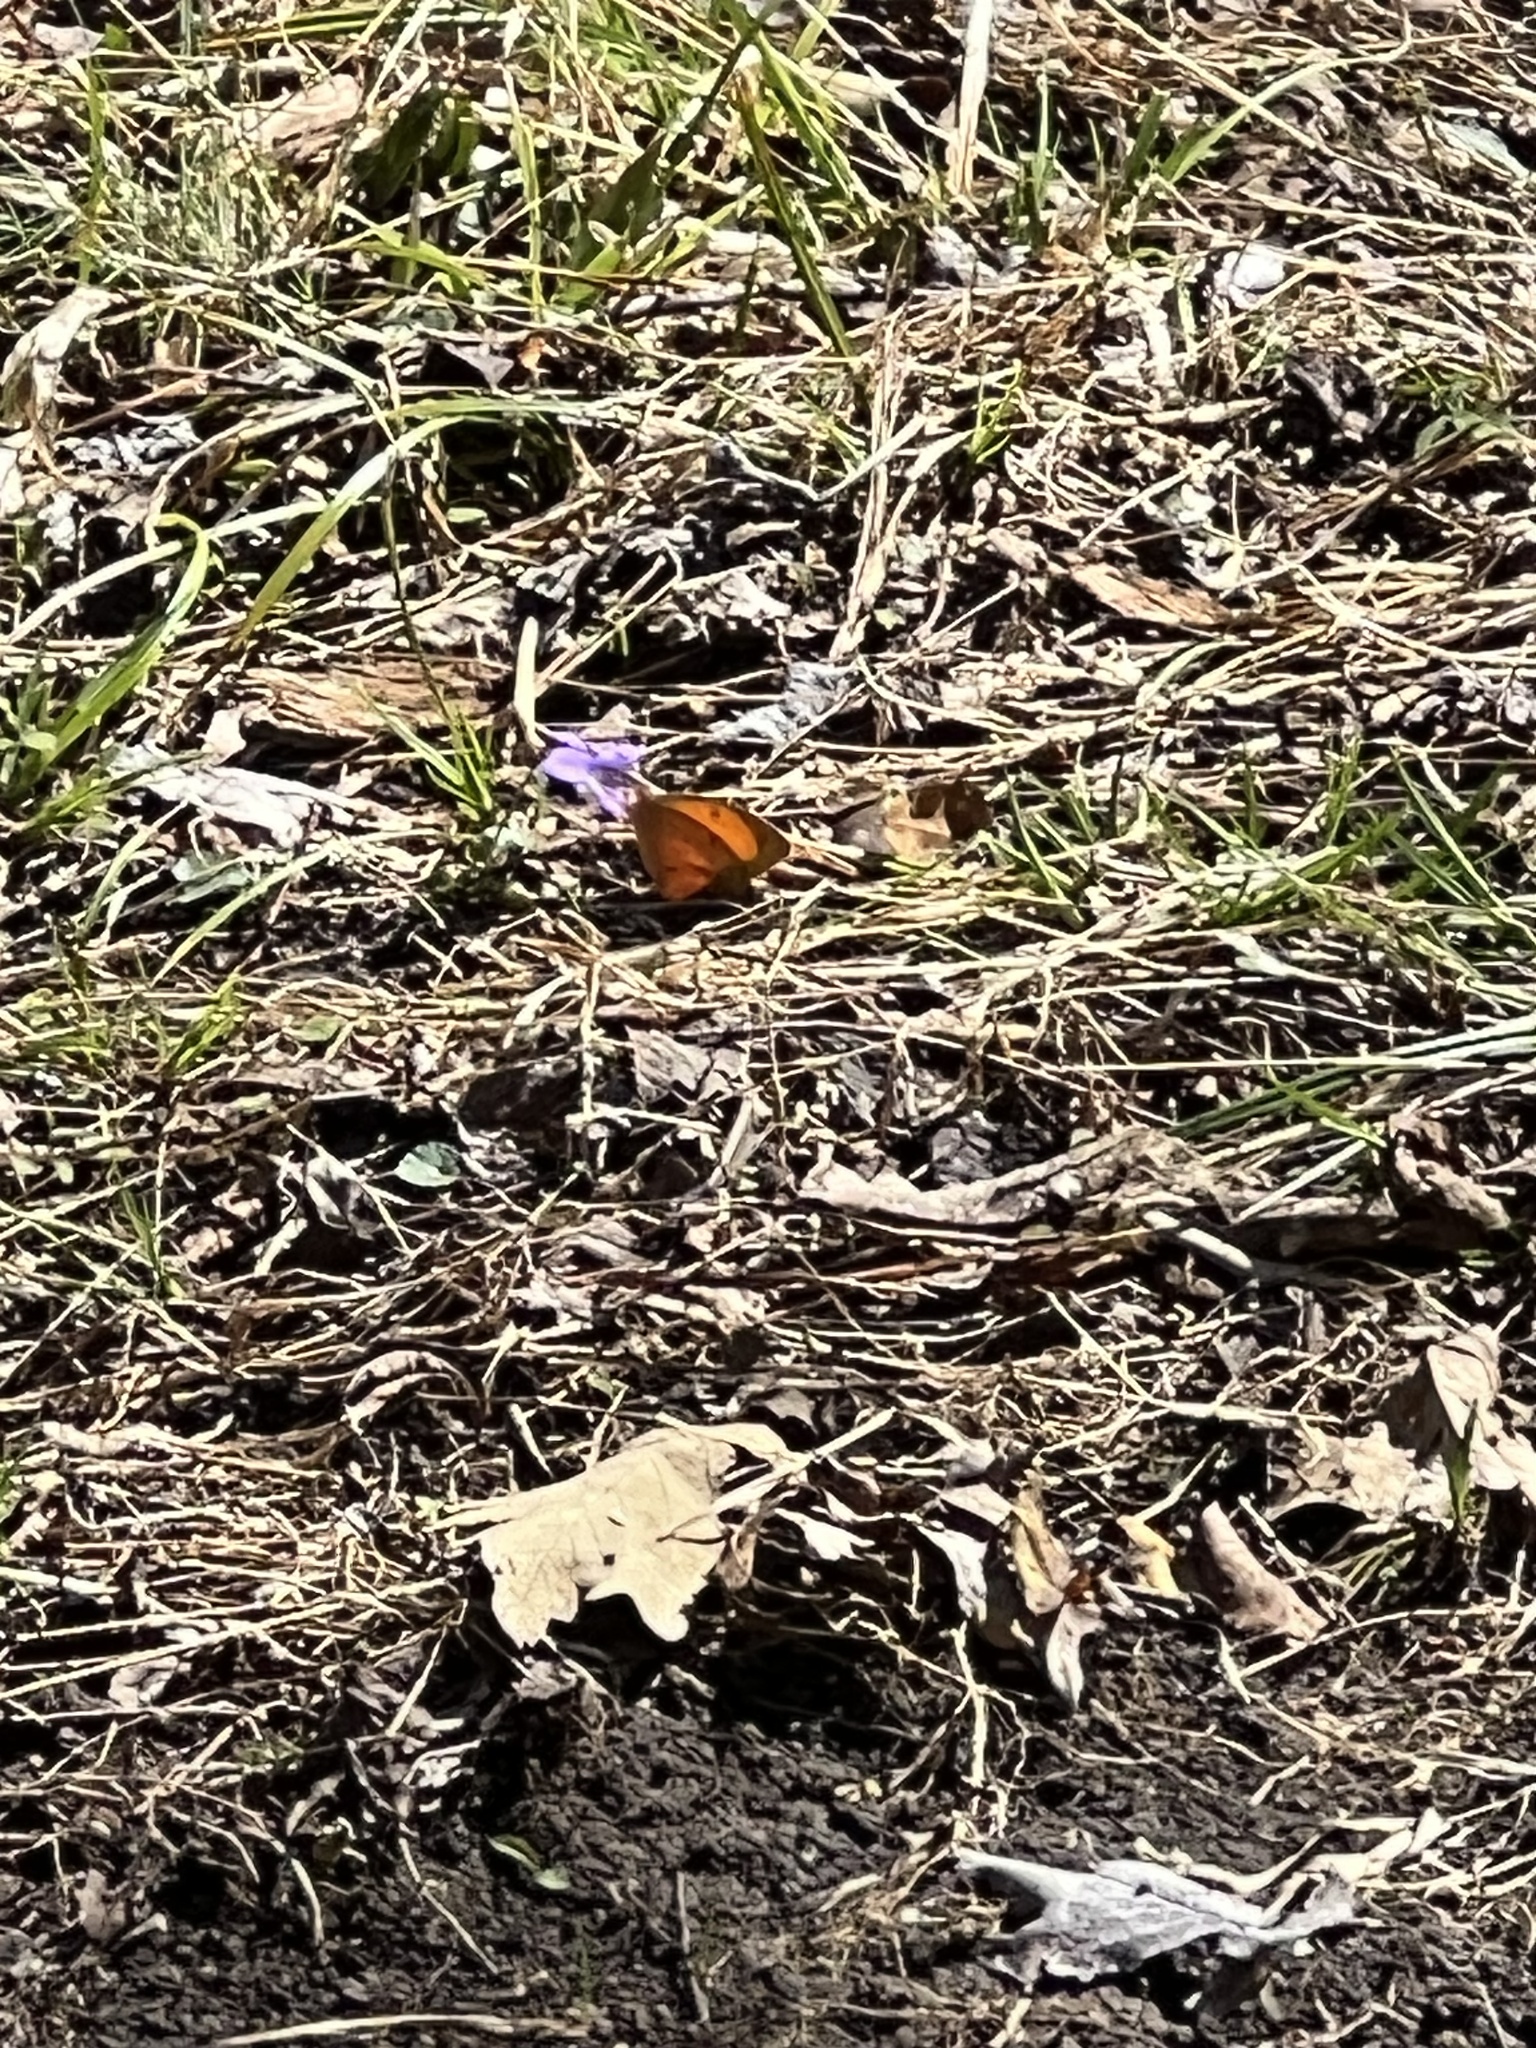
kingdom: Animalia
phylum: Arthropoda
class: Insecta
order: Lepidoptera
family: Pieridae
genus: Abaeis
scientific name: Abaeis nicippe
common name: Sleepy orange
